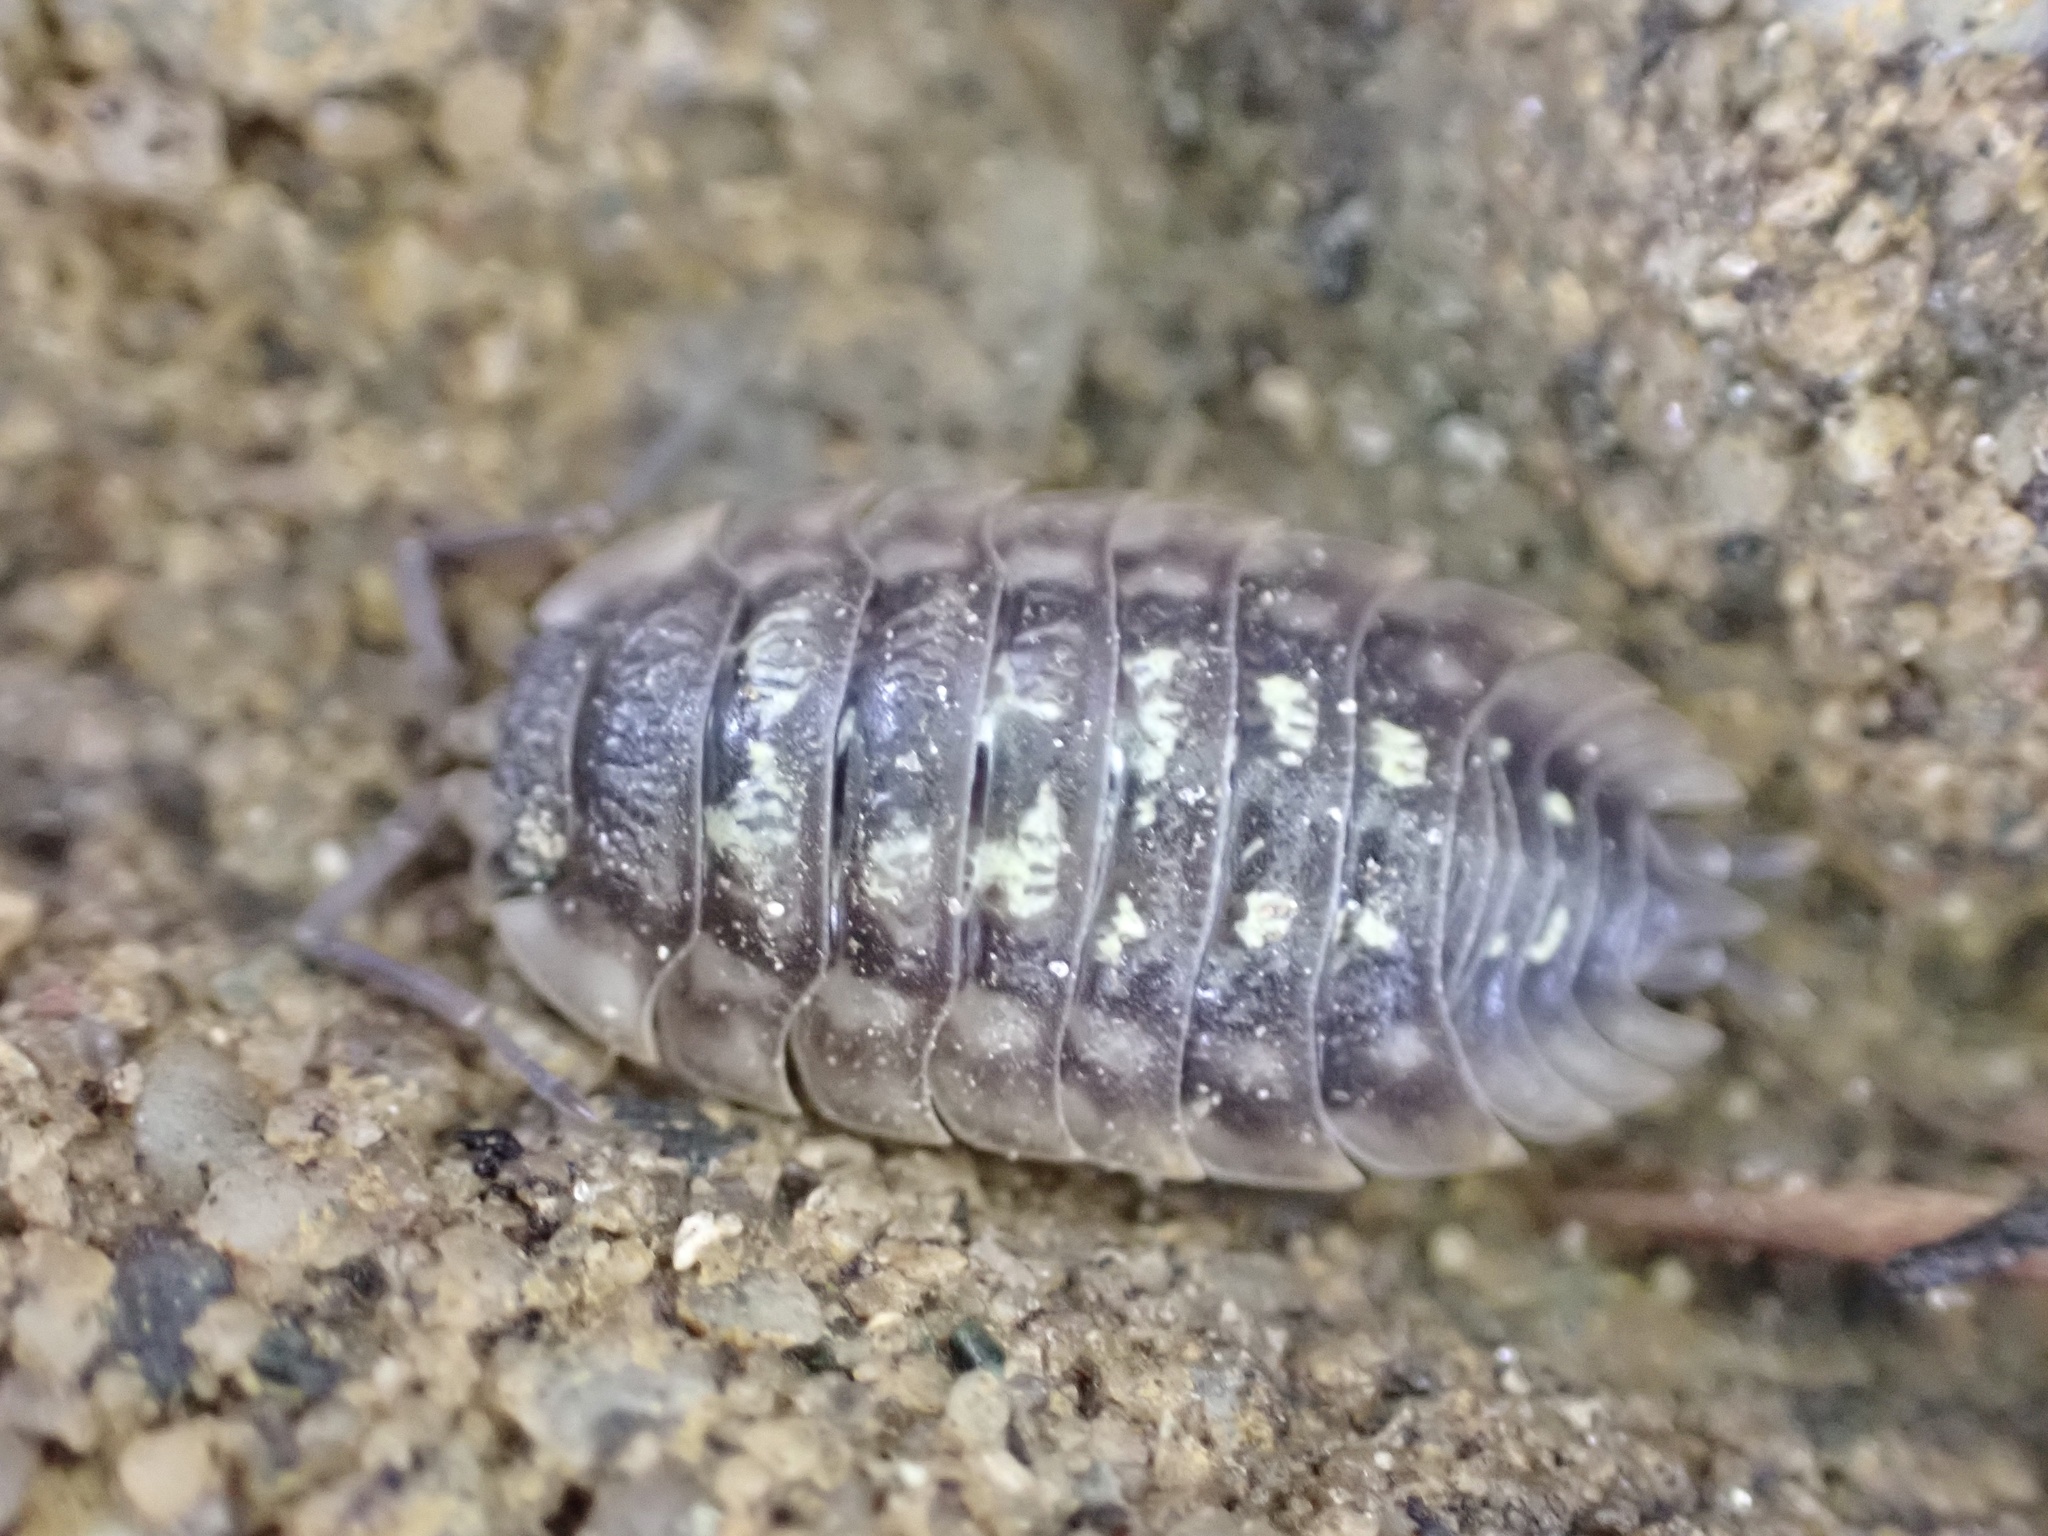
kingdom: Animalia
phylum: Arthropoda
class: Malacostraca
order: Isopoda
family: Oniscidae
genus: Oniscus
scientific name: Oniscus asellus
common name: Common shiny woodlouse
